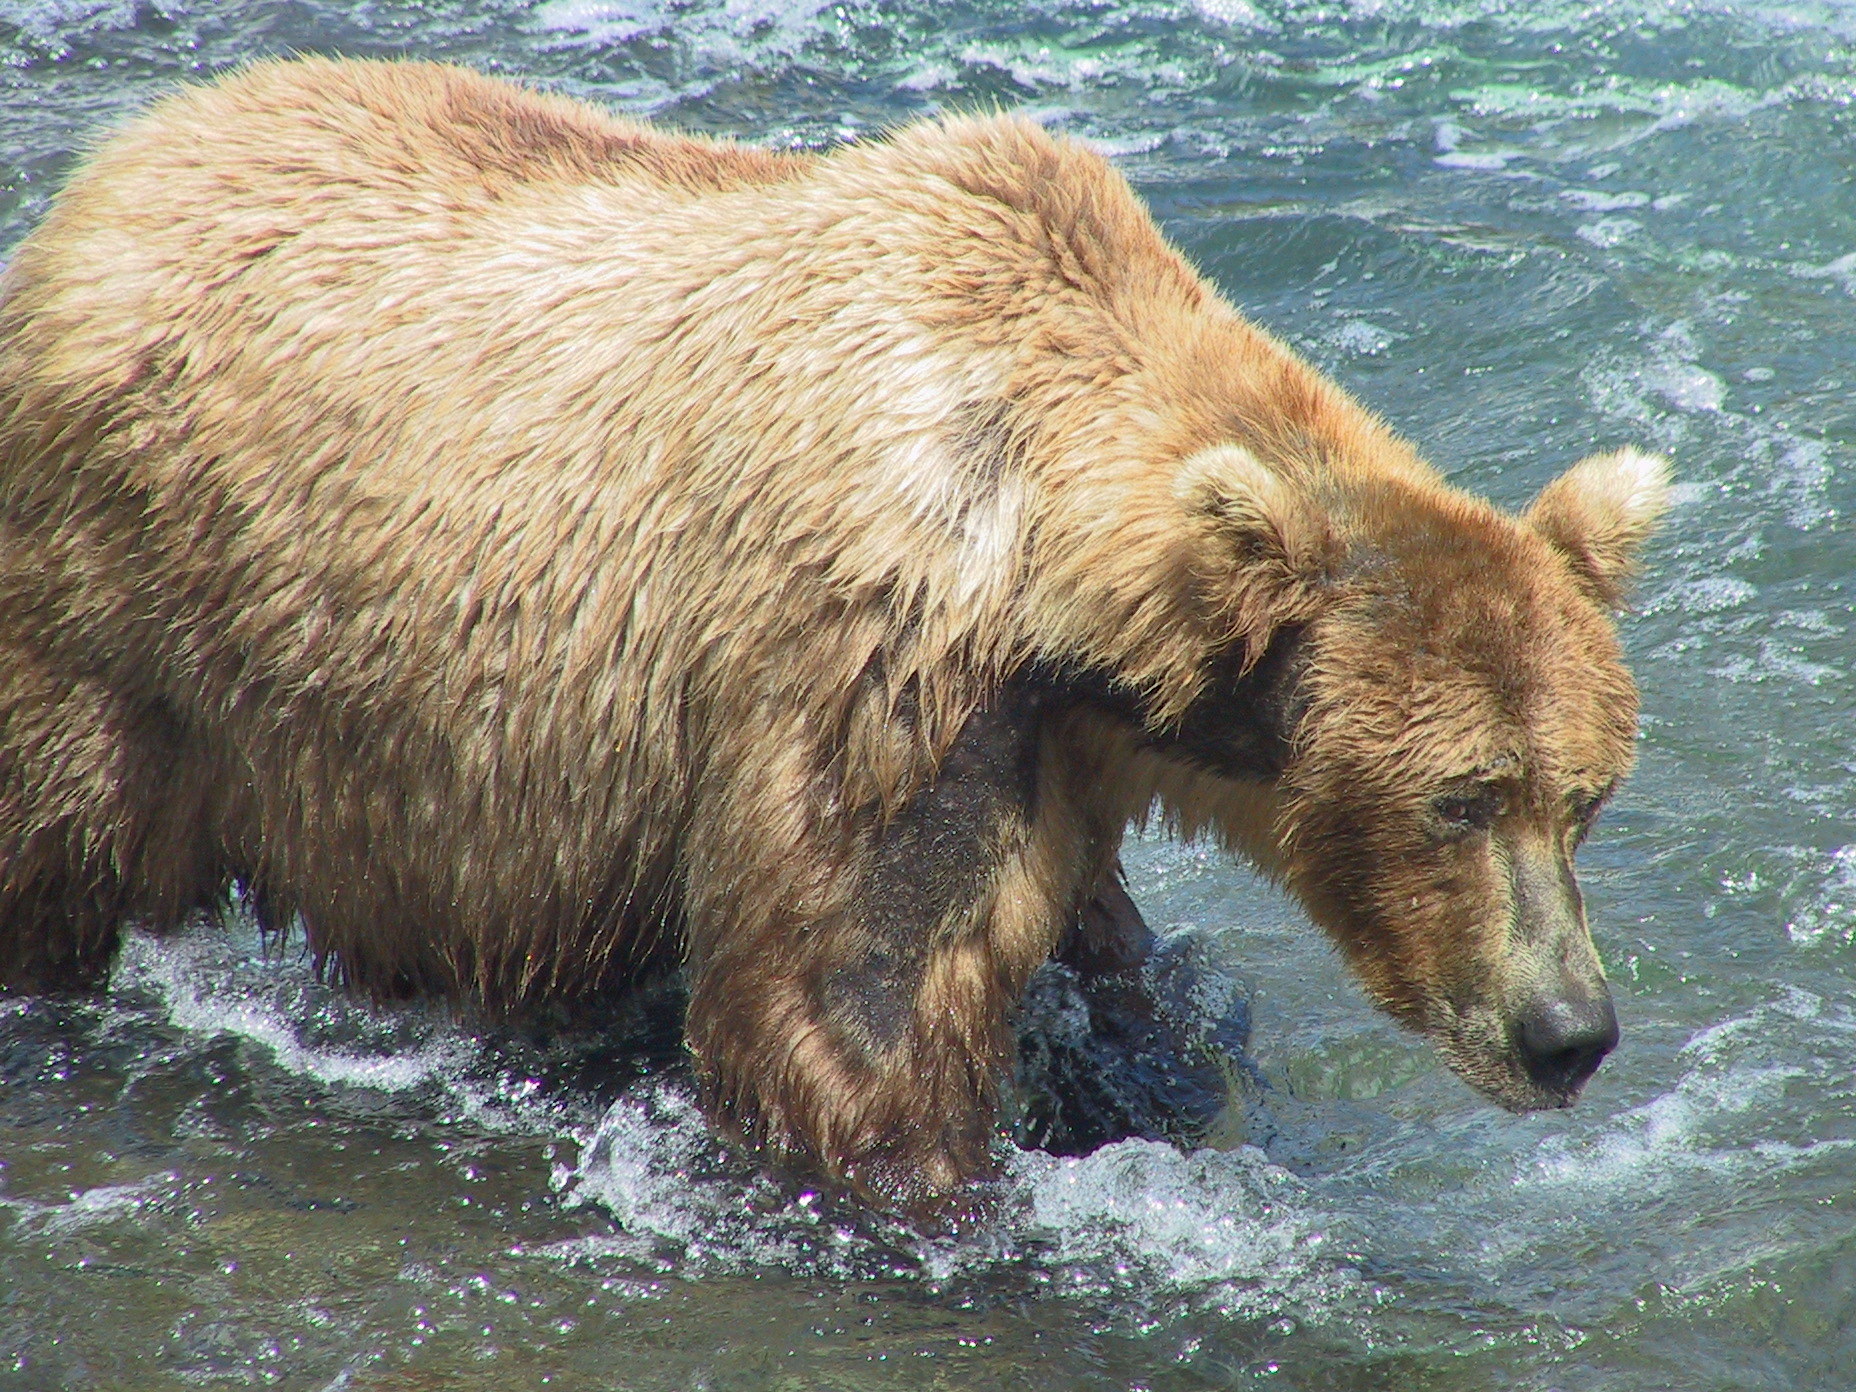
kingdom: Animalia
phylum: Chordata
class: Mammalia
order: Carnivora
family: Ursidae
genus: Ursus
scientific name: Ursus arctos
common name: Brown bear
